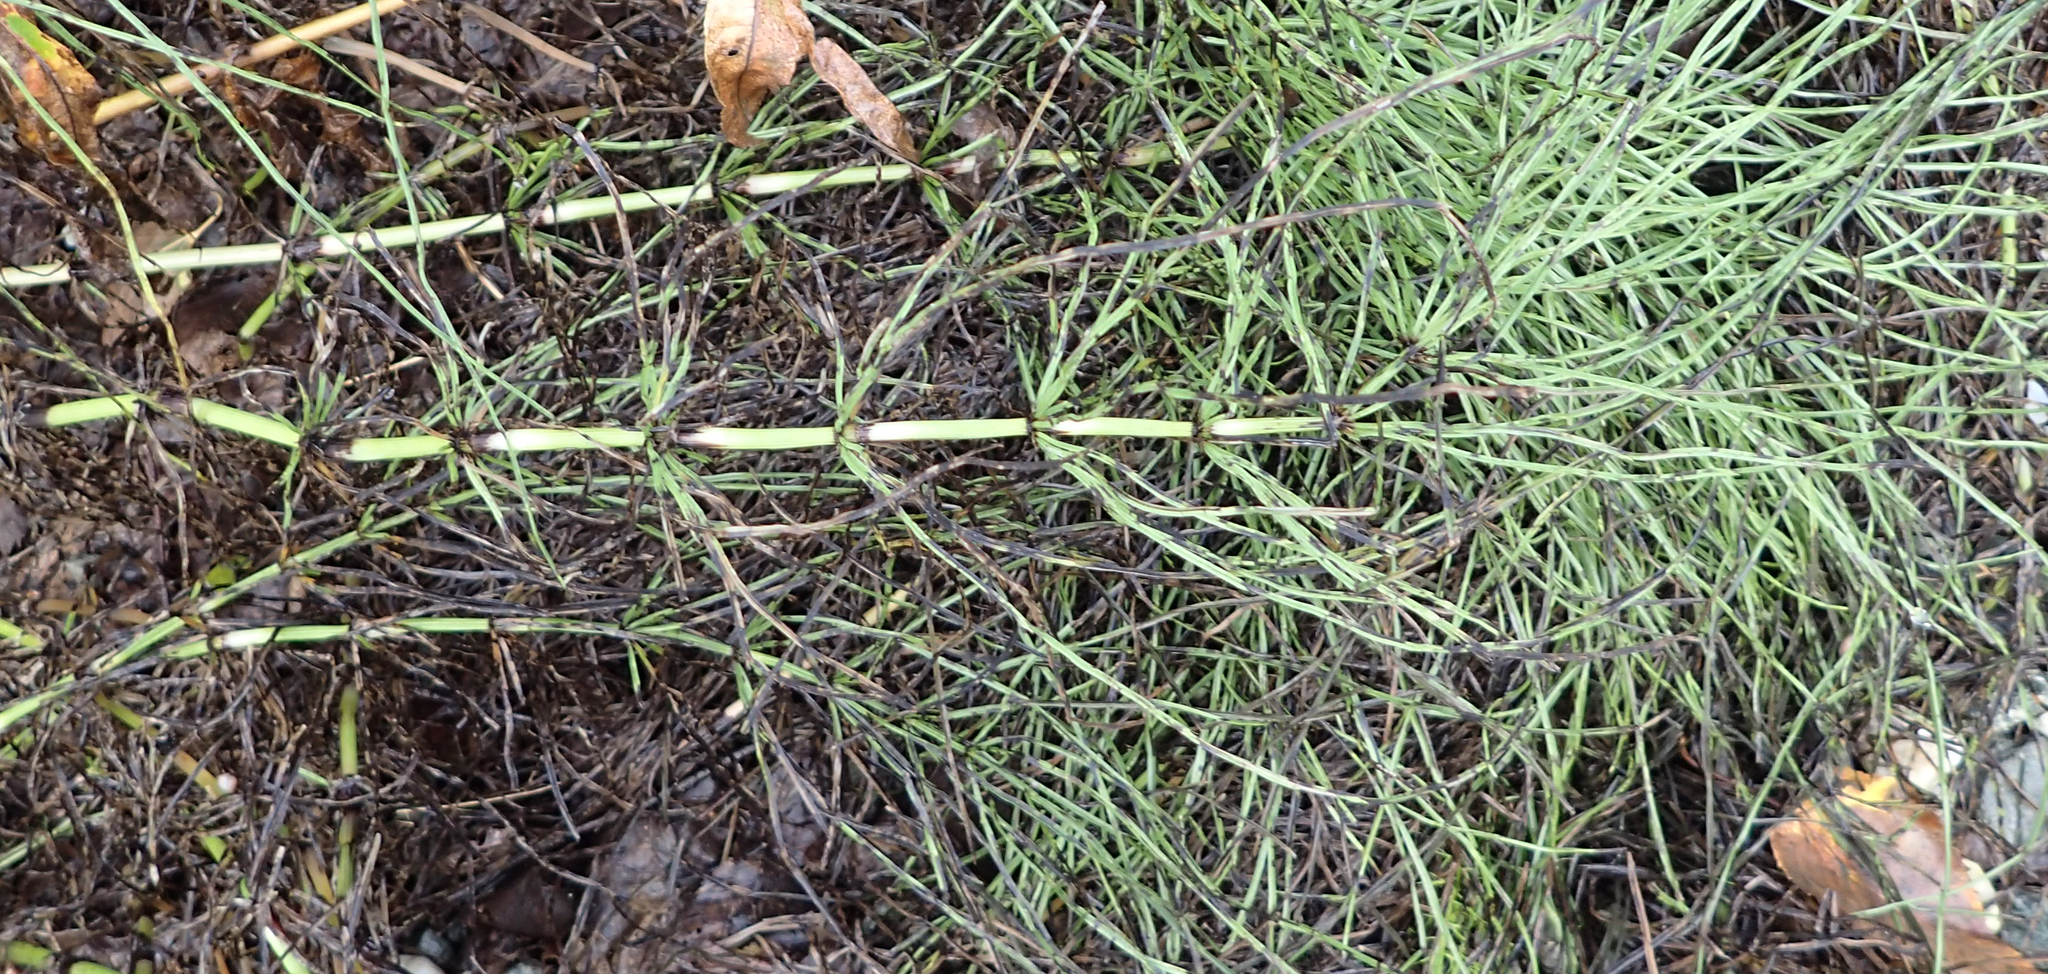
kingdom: Plantae
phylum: Tracheophyta
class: Polypodiopsida
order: Equisetales
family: Equisetaceae
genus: Equisetum
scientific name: Equisetum arvense
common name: Field horsetail
